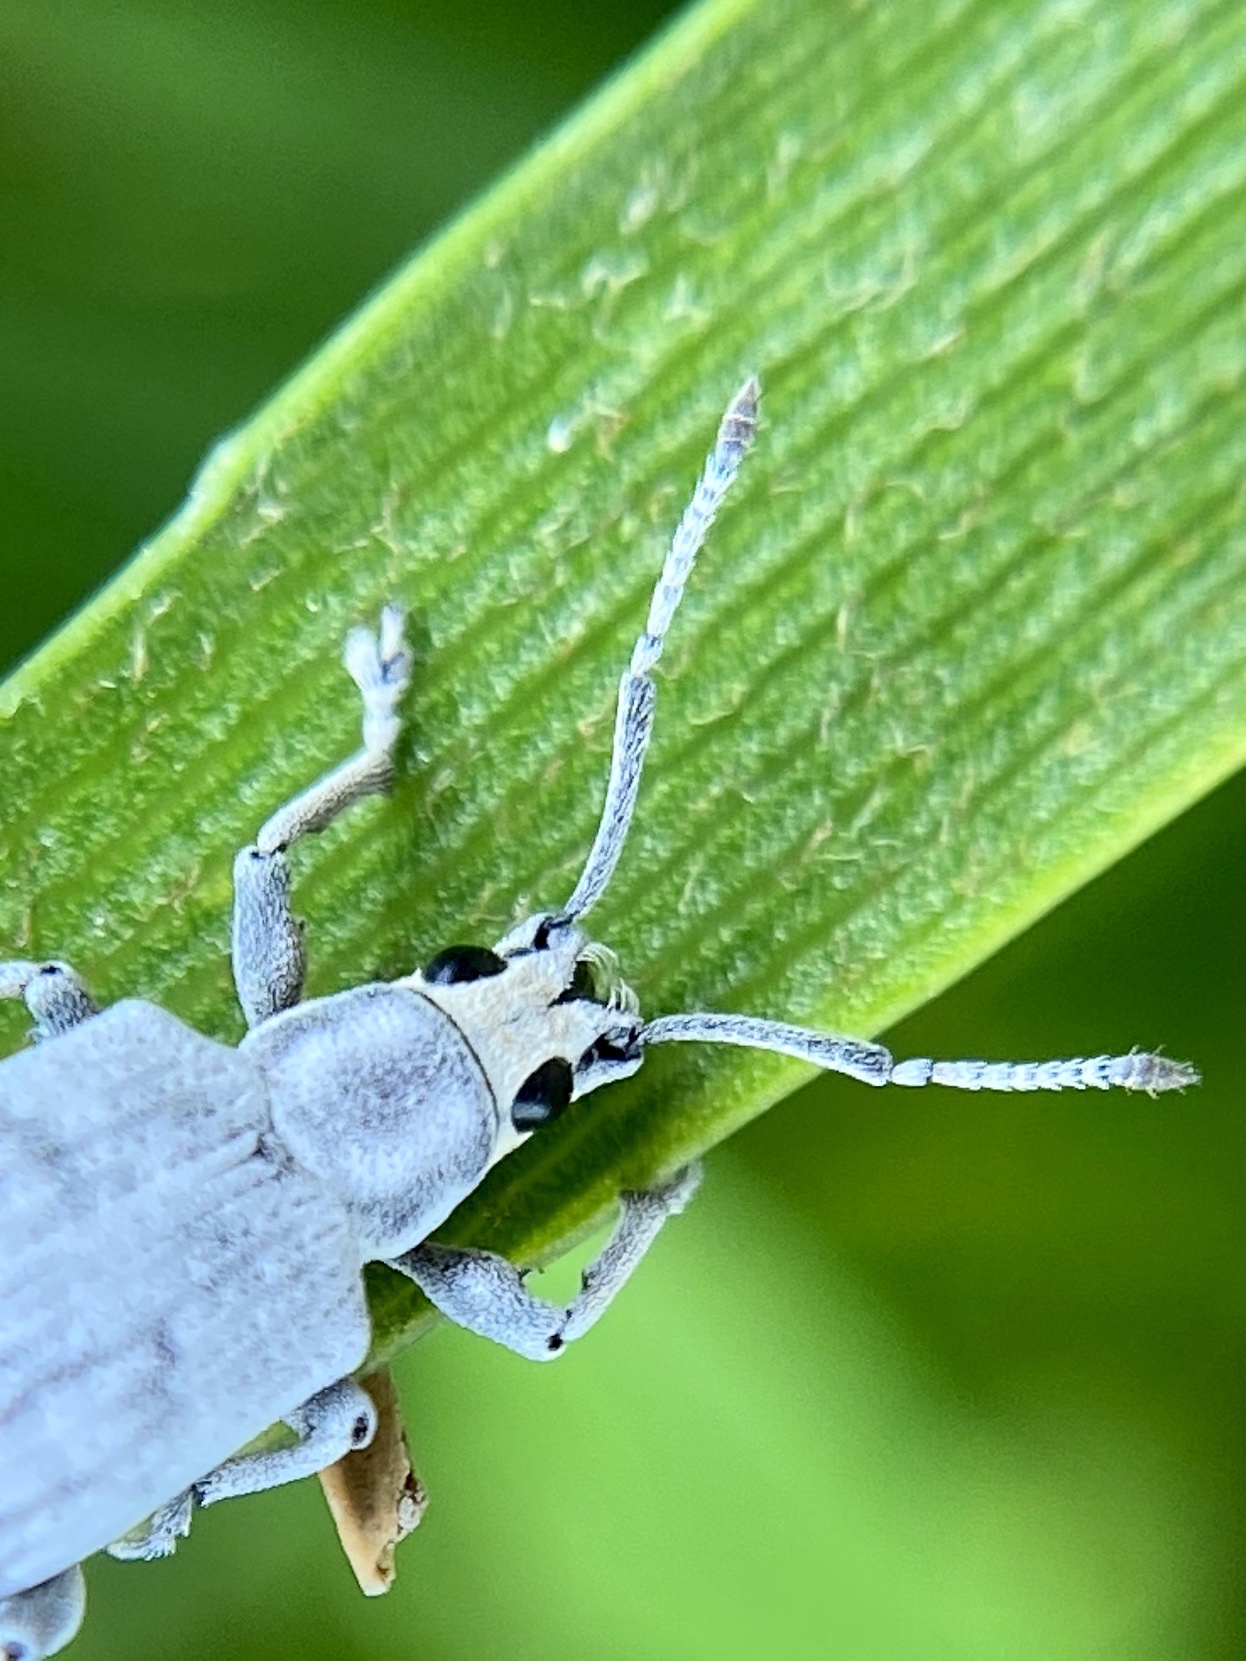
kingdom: Animalia
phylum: Arthropoda
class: Insecta
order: Coleoptera
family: Curculionidae
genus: Myllocerus
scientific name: Myllocerus undecimpustulatus
